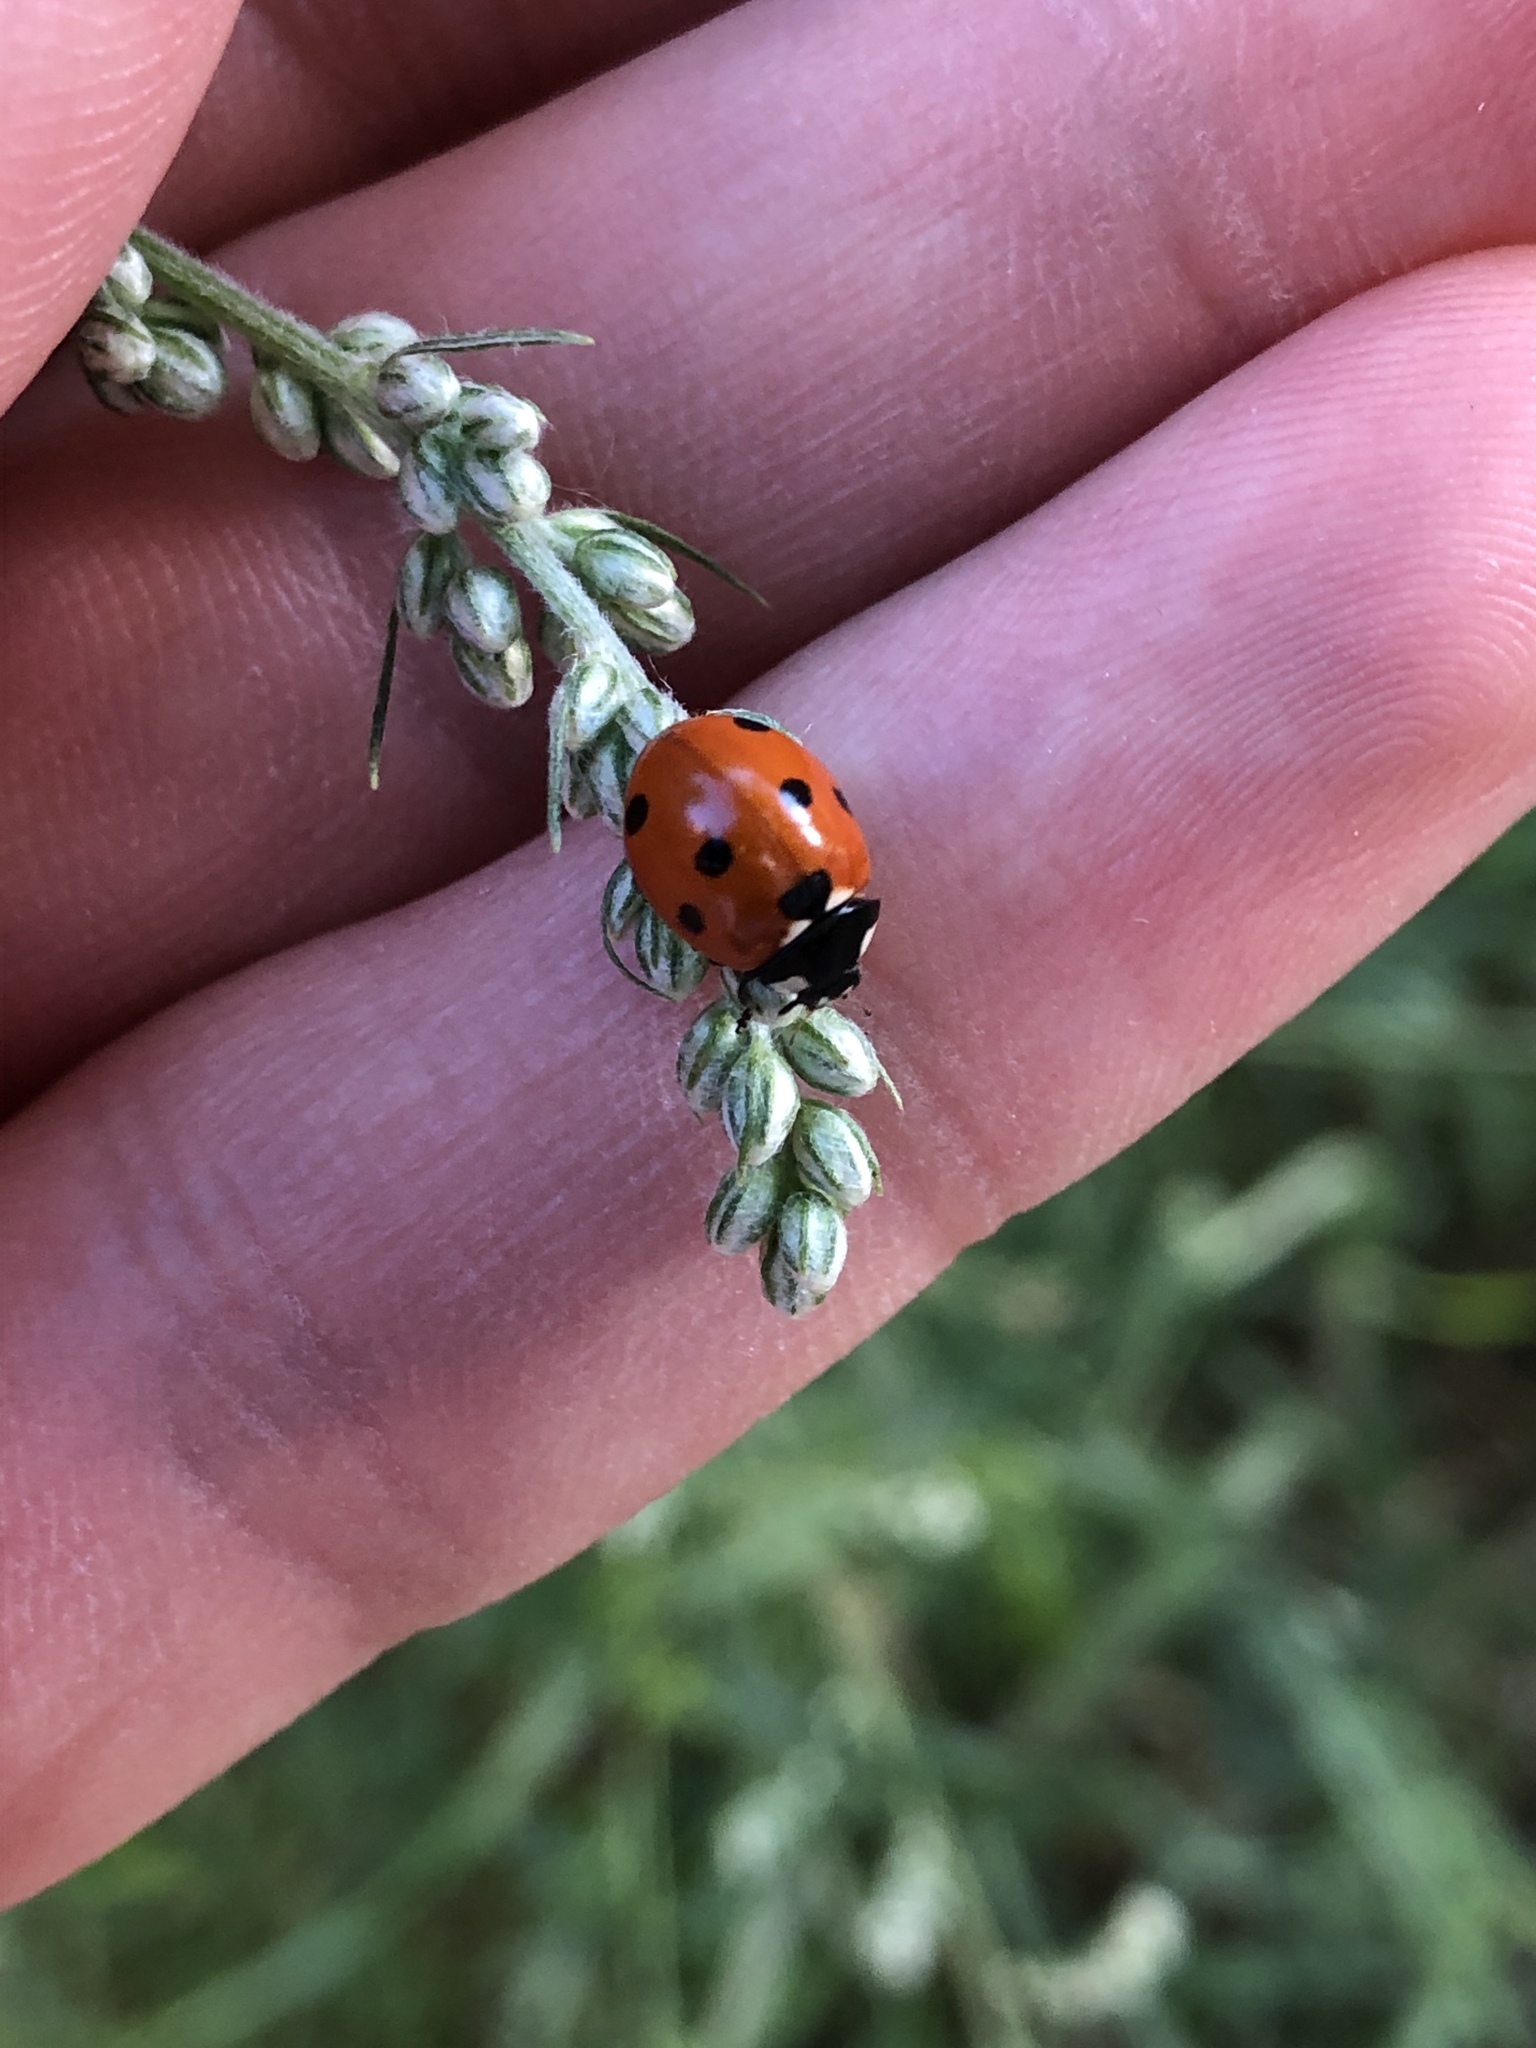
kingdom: Animalia
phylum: Arthropoda
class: Insecta
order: Coleoptera
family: Coccinellidae
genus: Coccinella
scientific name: Coccinella septempunctata
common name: Sevenspotted lady beetle
